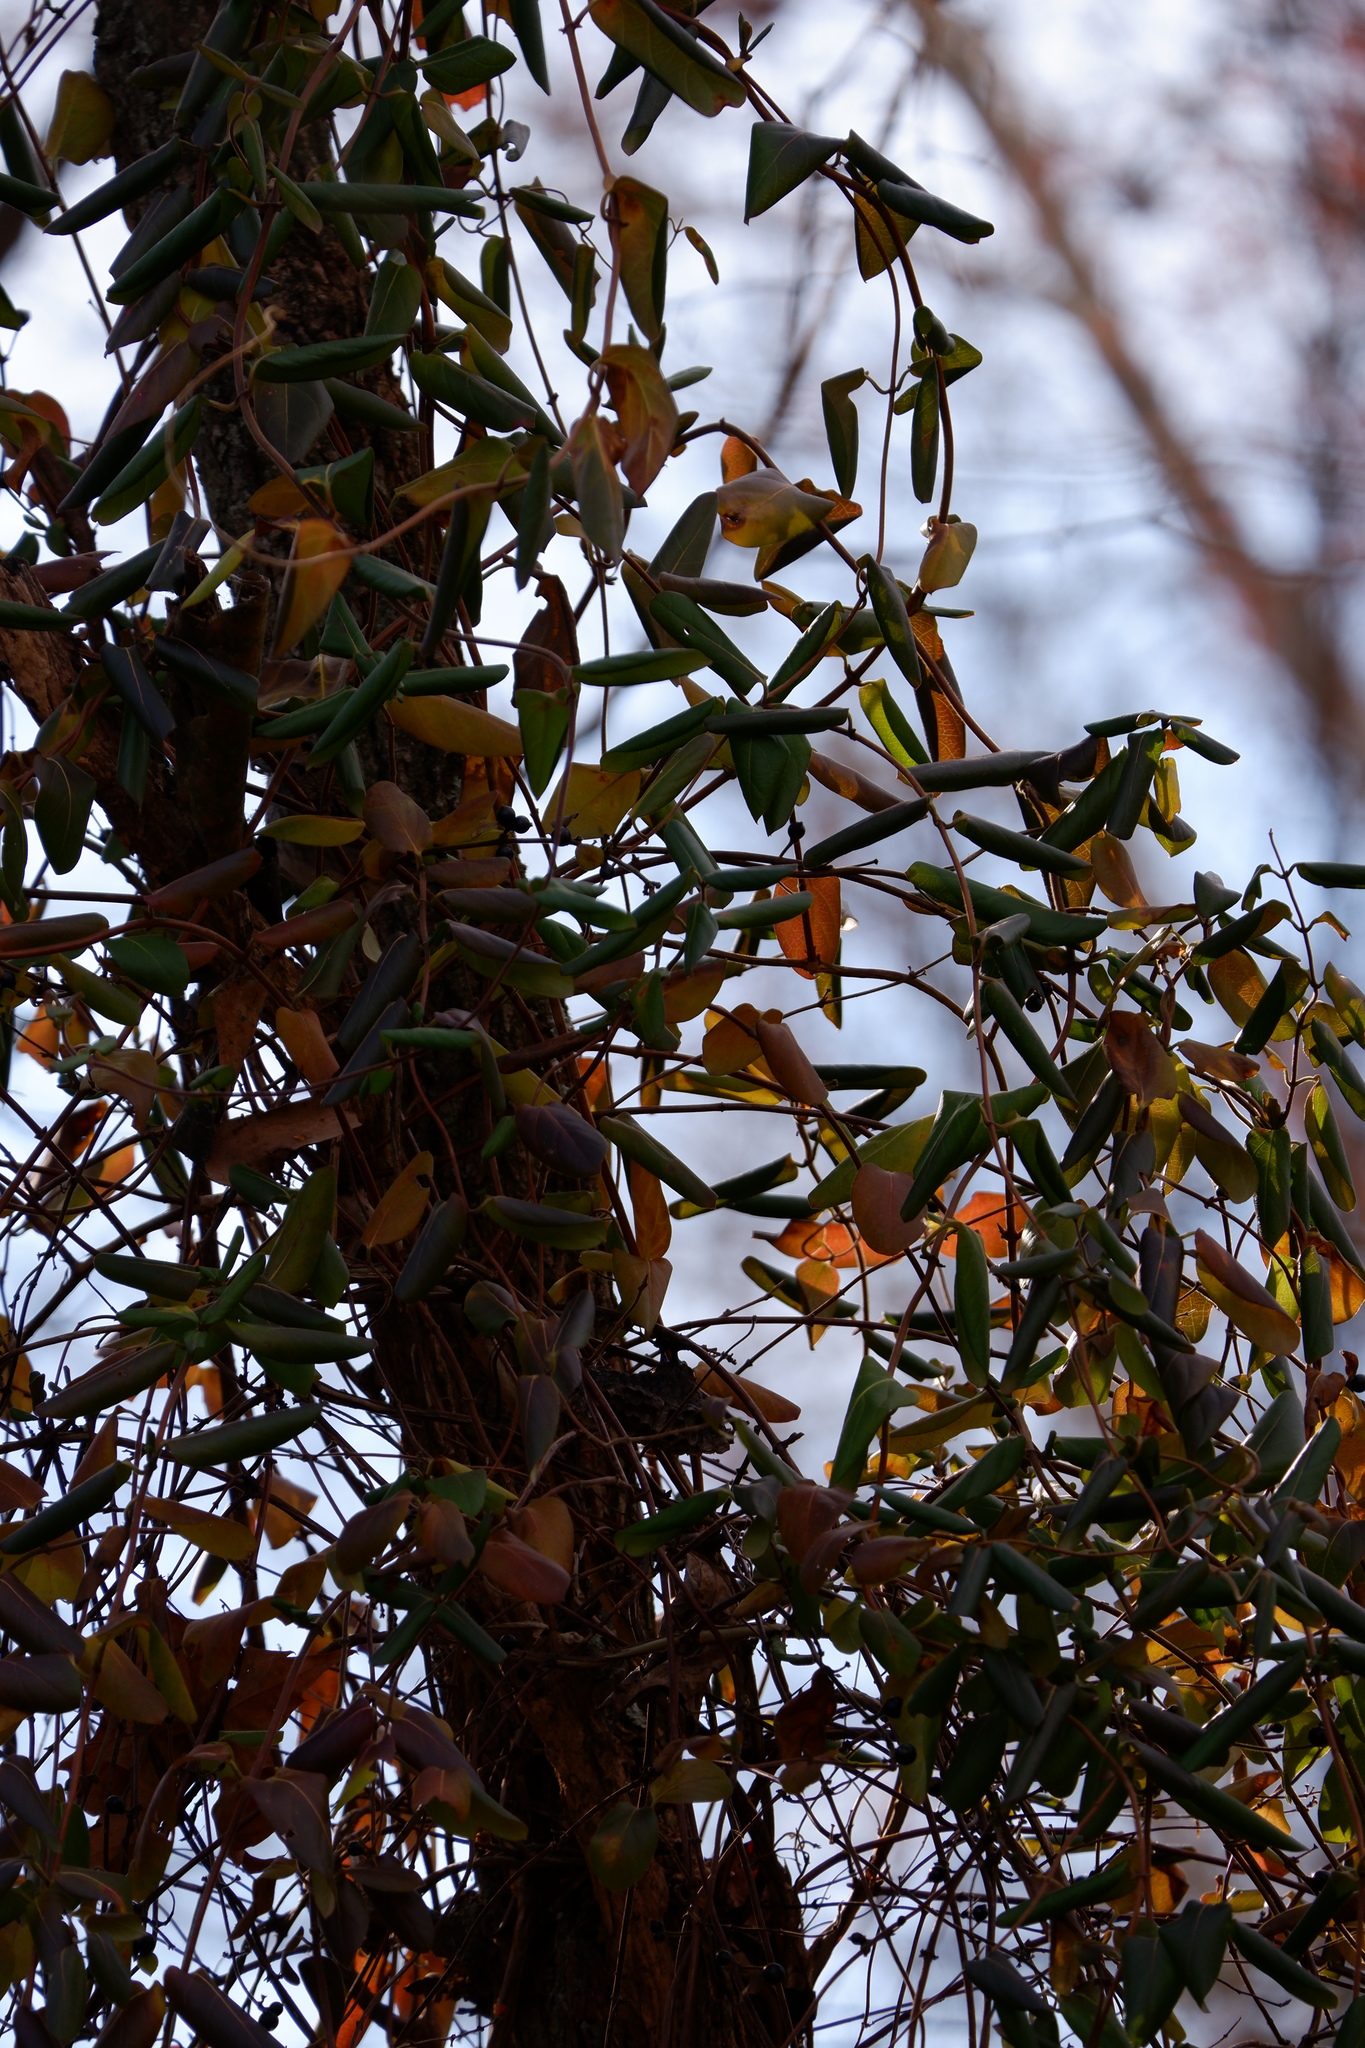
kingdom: Plantae
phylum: Tracheophyta
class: Magnoliopsida
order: Dipsacales
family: Caprifoliaceae
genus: Lonicera
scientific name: Lonicera japonica
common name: Japanese honeysuckle
